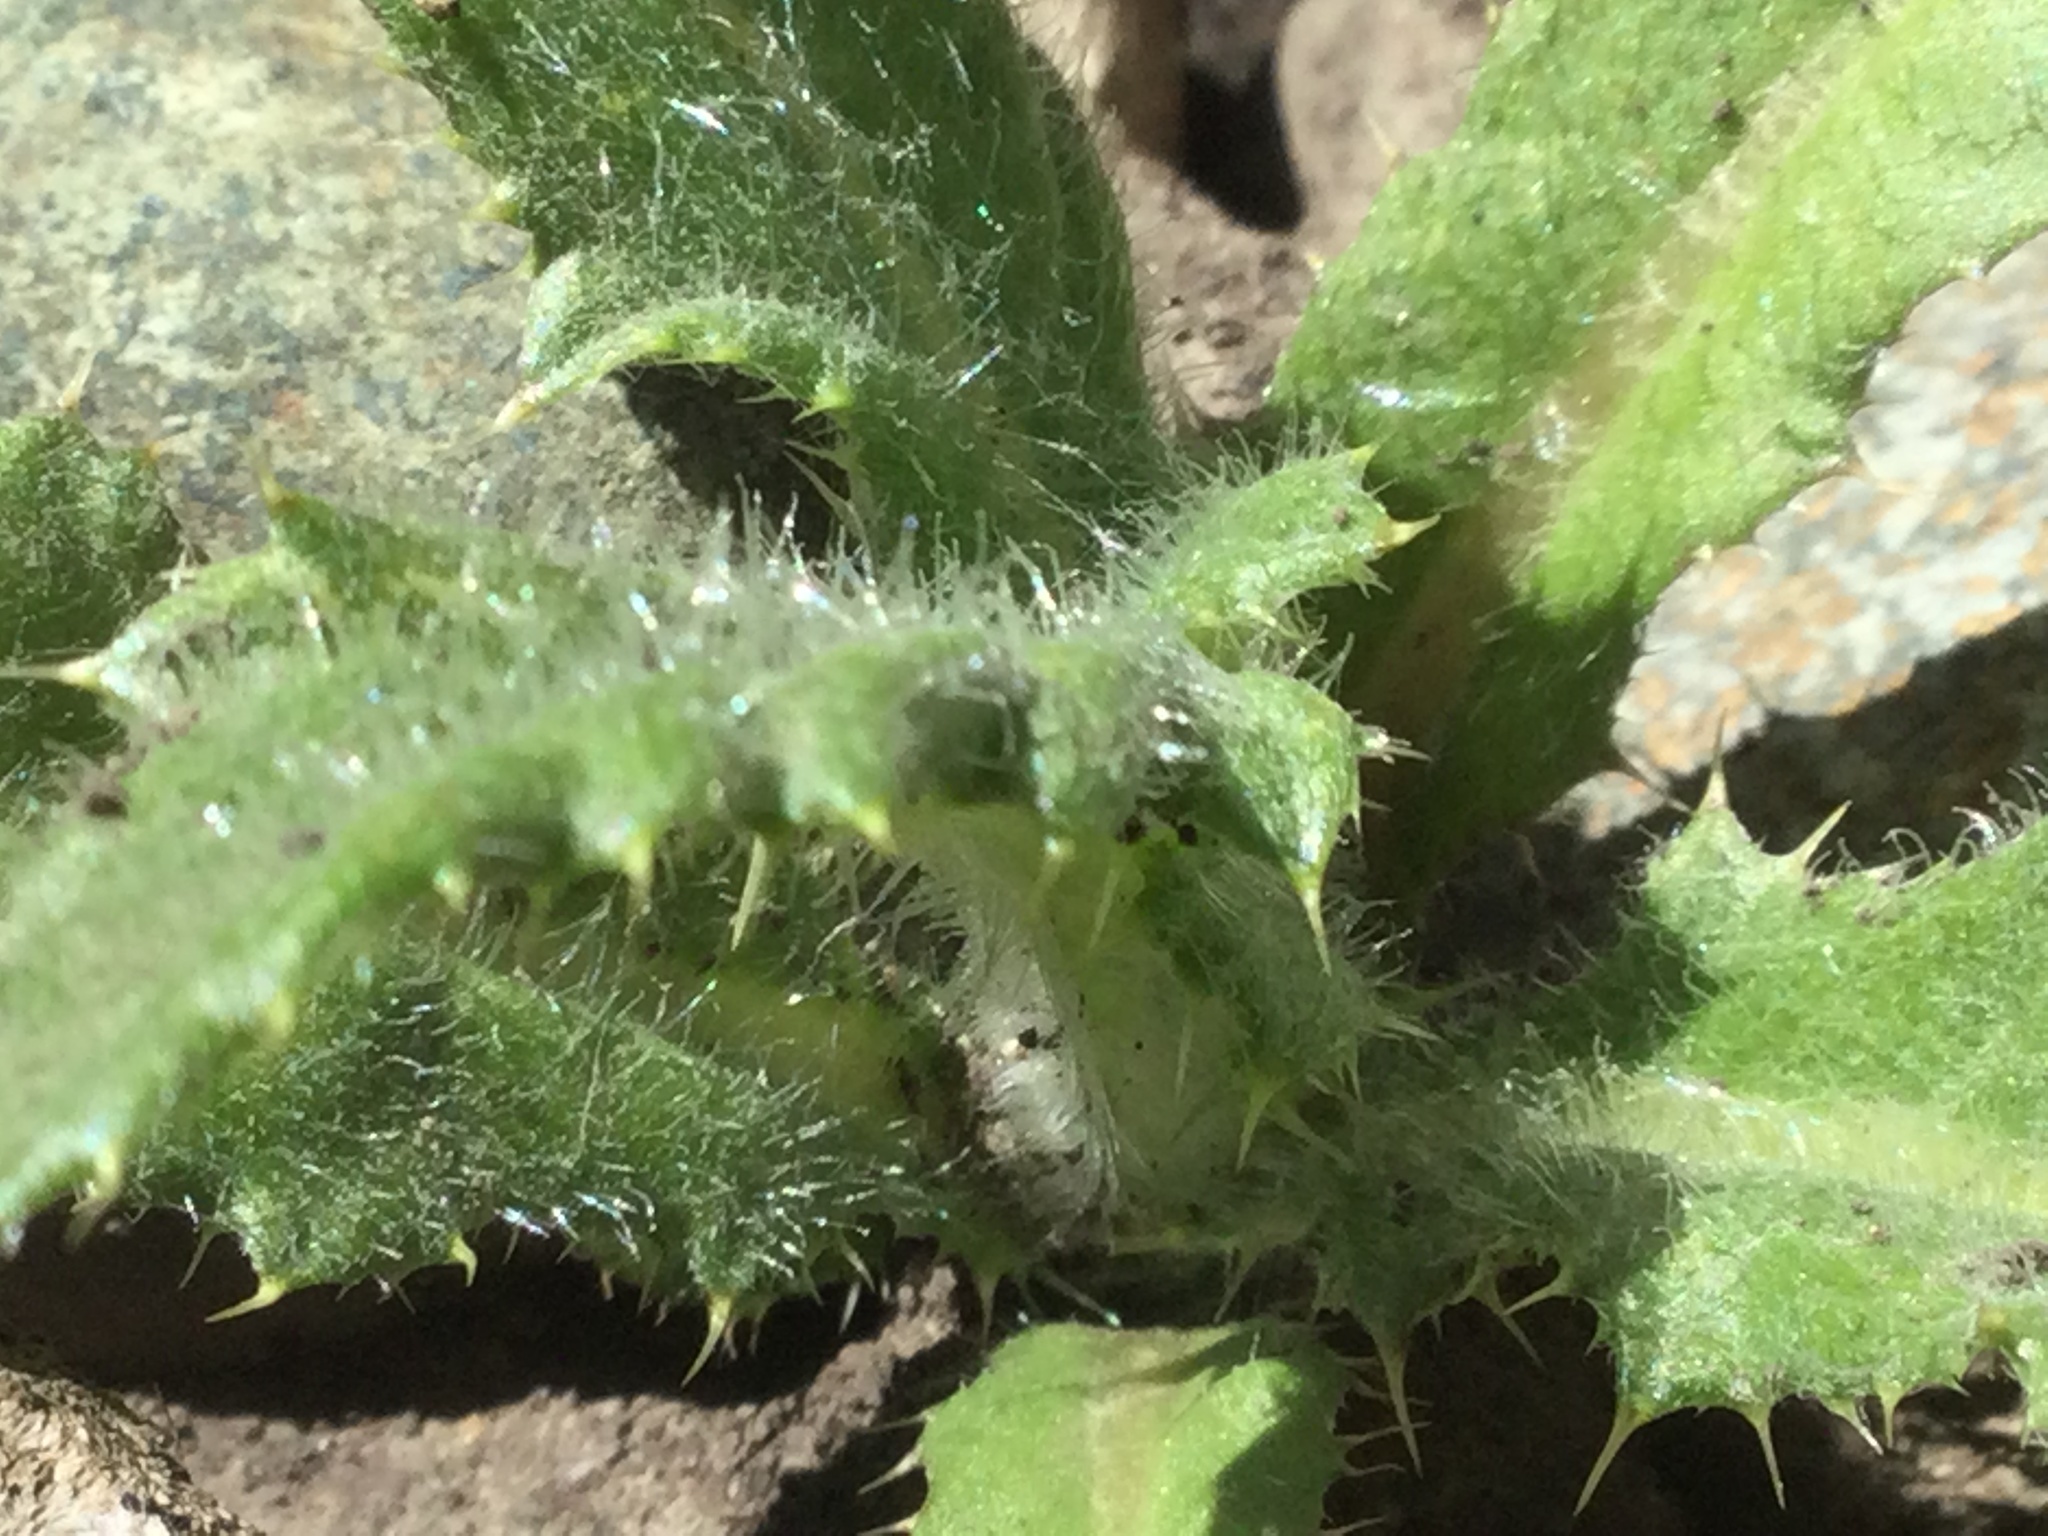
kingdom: Plantae
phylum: Tracheophyta
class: Magnoliopsida
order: Asterales
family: Asteraceae
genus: Cirsium
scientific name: Cirsium arvense
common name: Creeping thistle
